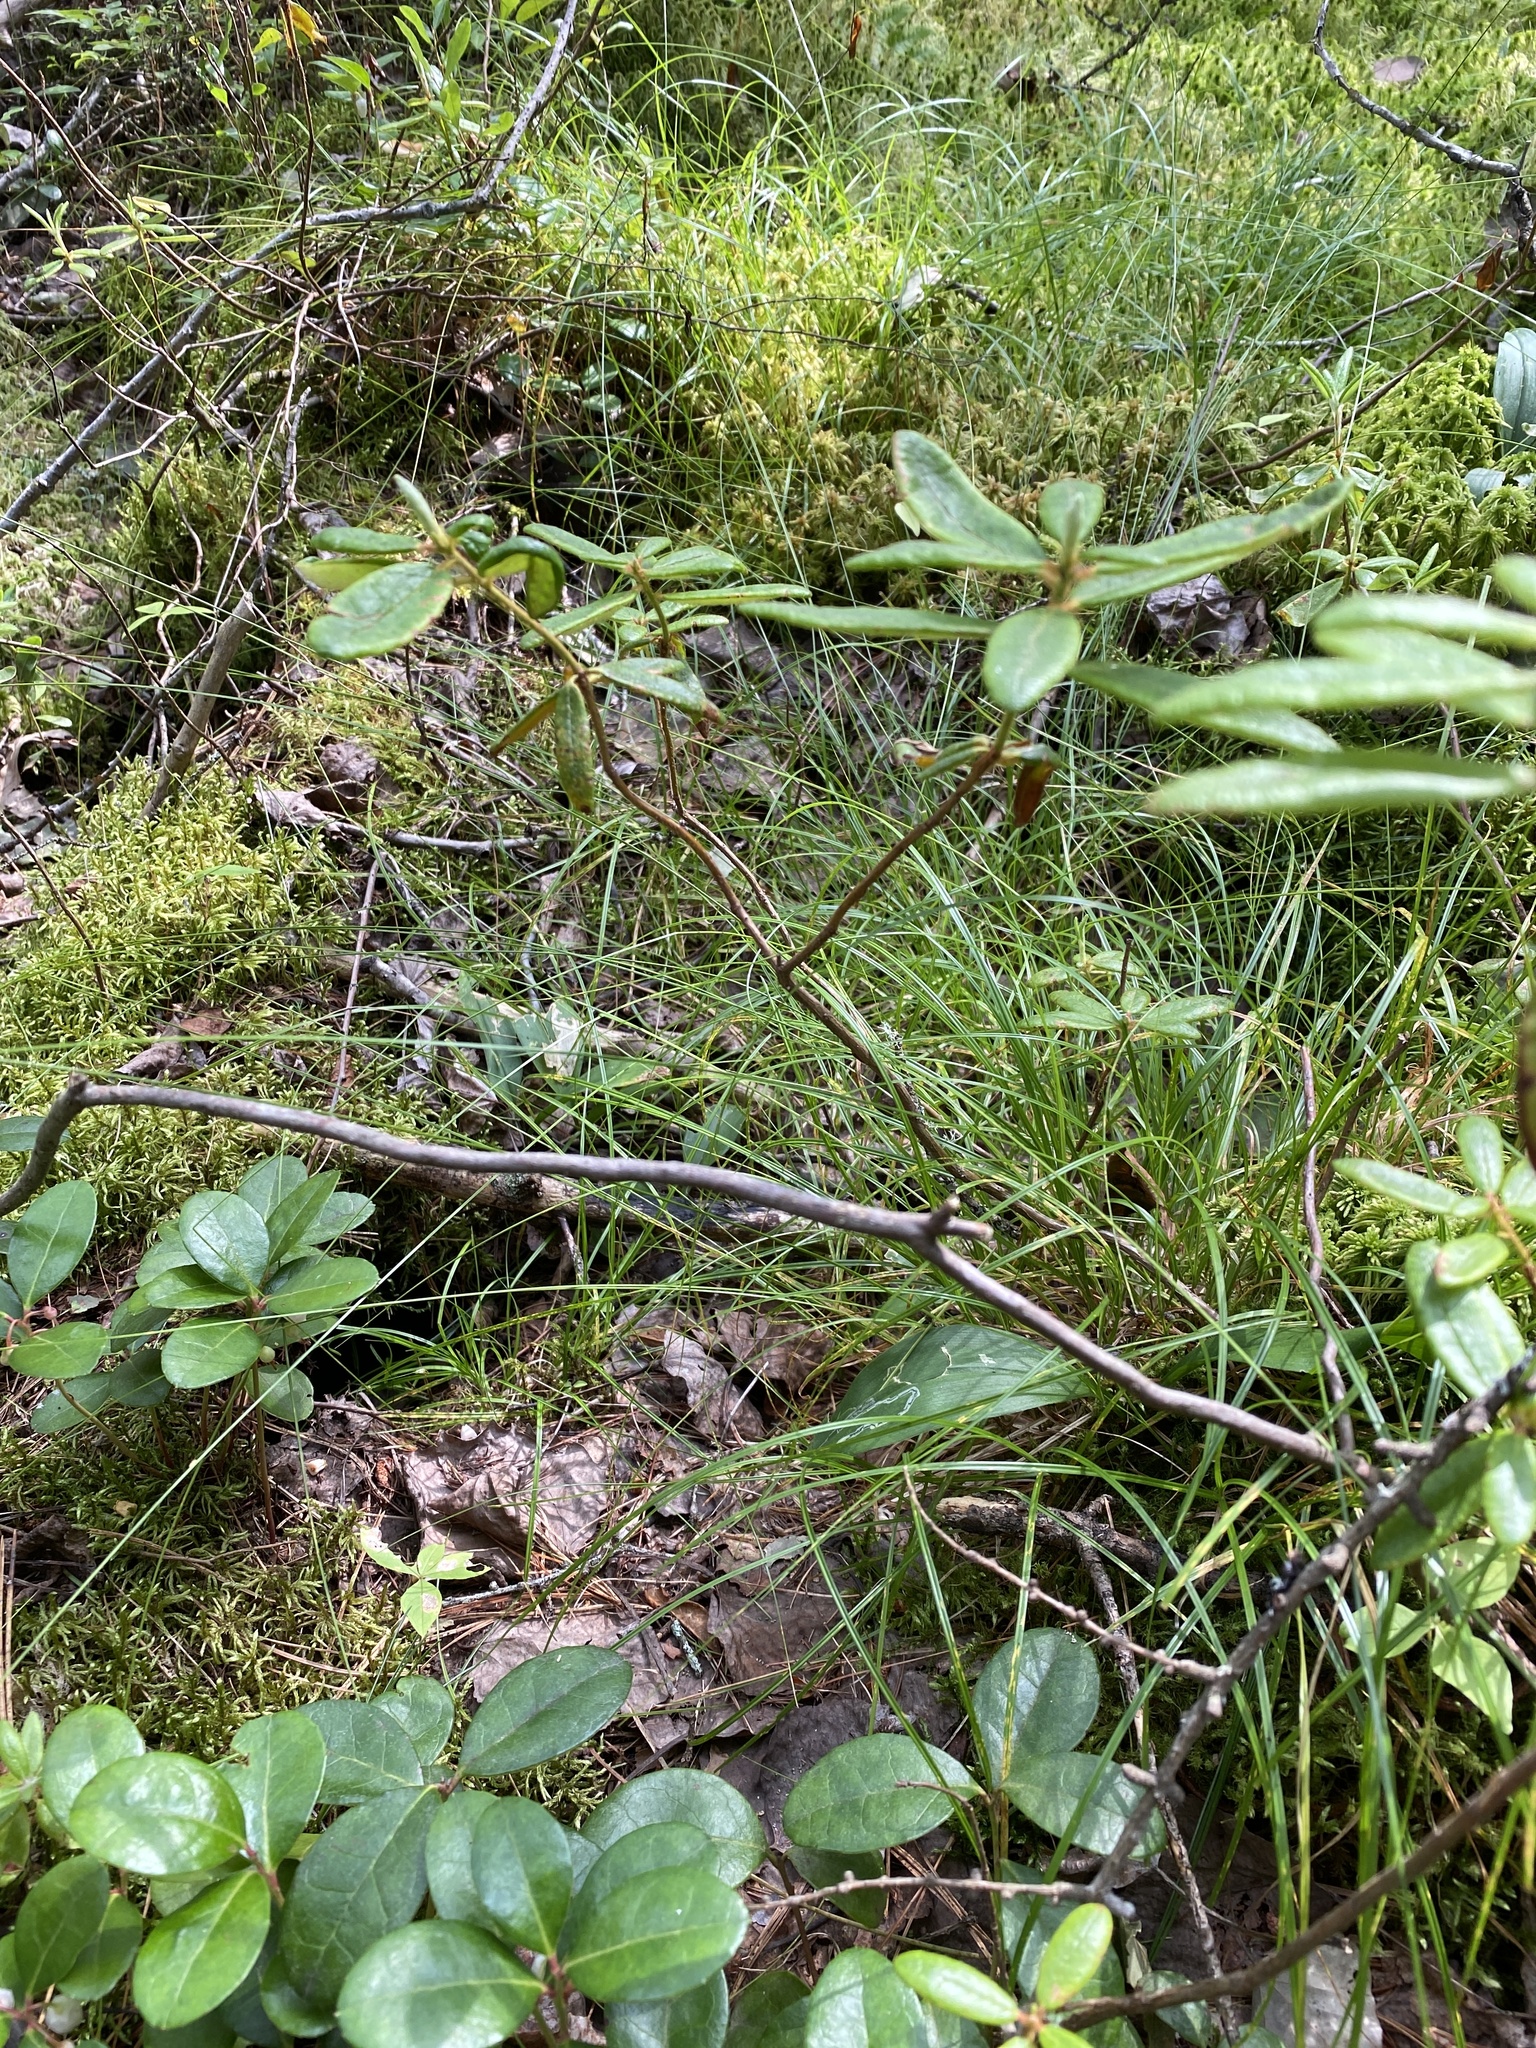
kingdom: Plantae
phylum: Tracheophyta
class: Magnoliopsida
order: Ericales
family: Ericaceae
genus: Rhododendron
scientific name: Rhododendron groenlandicum
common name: Bog labrador tea
